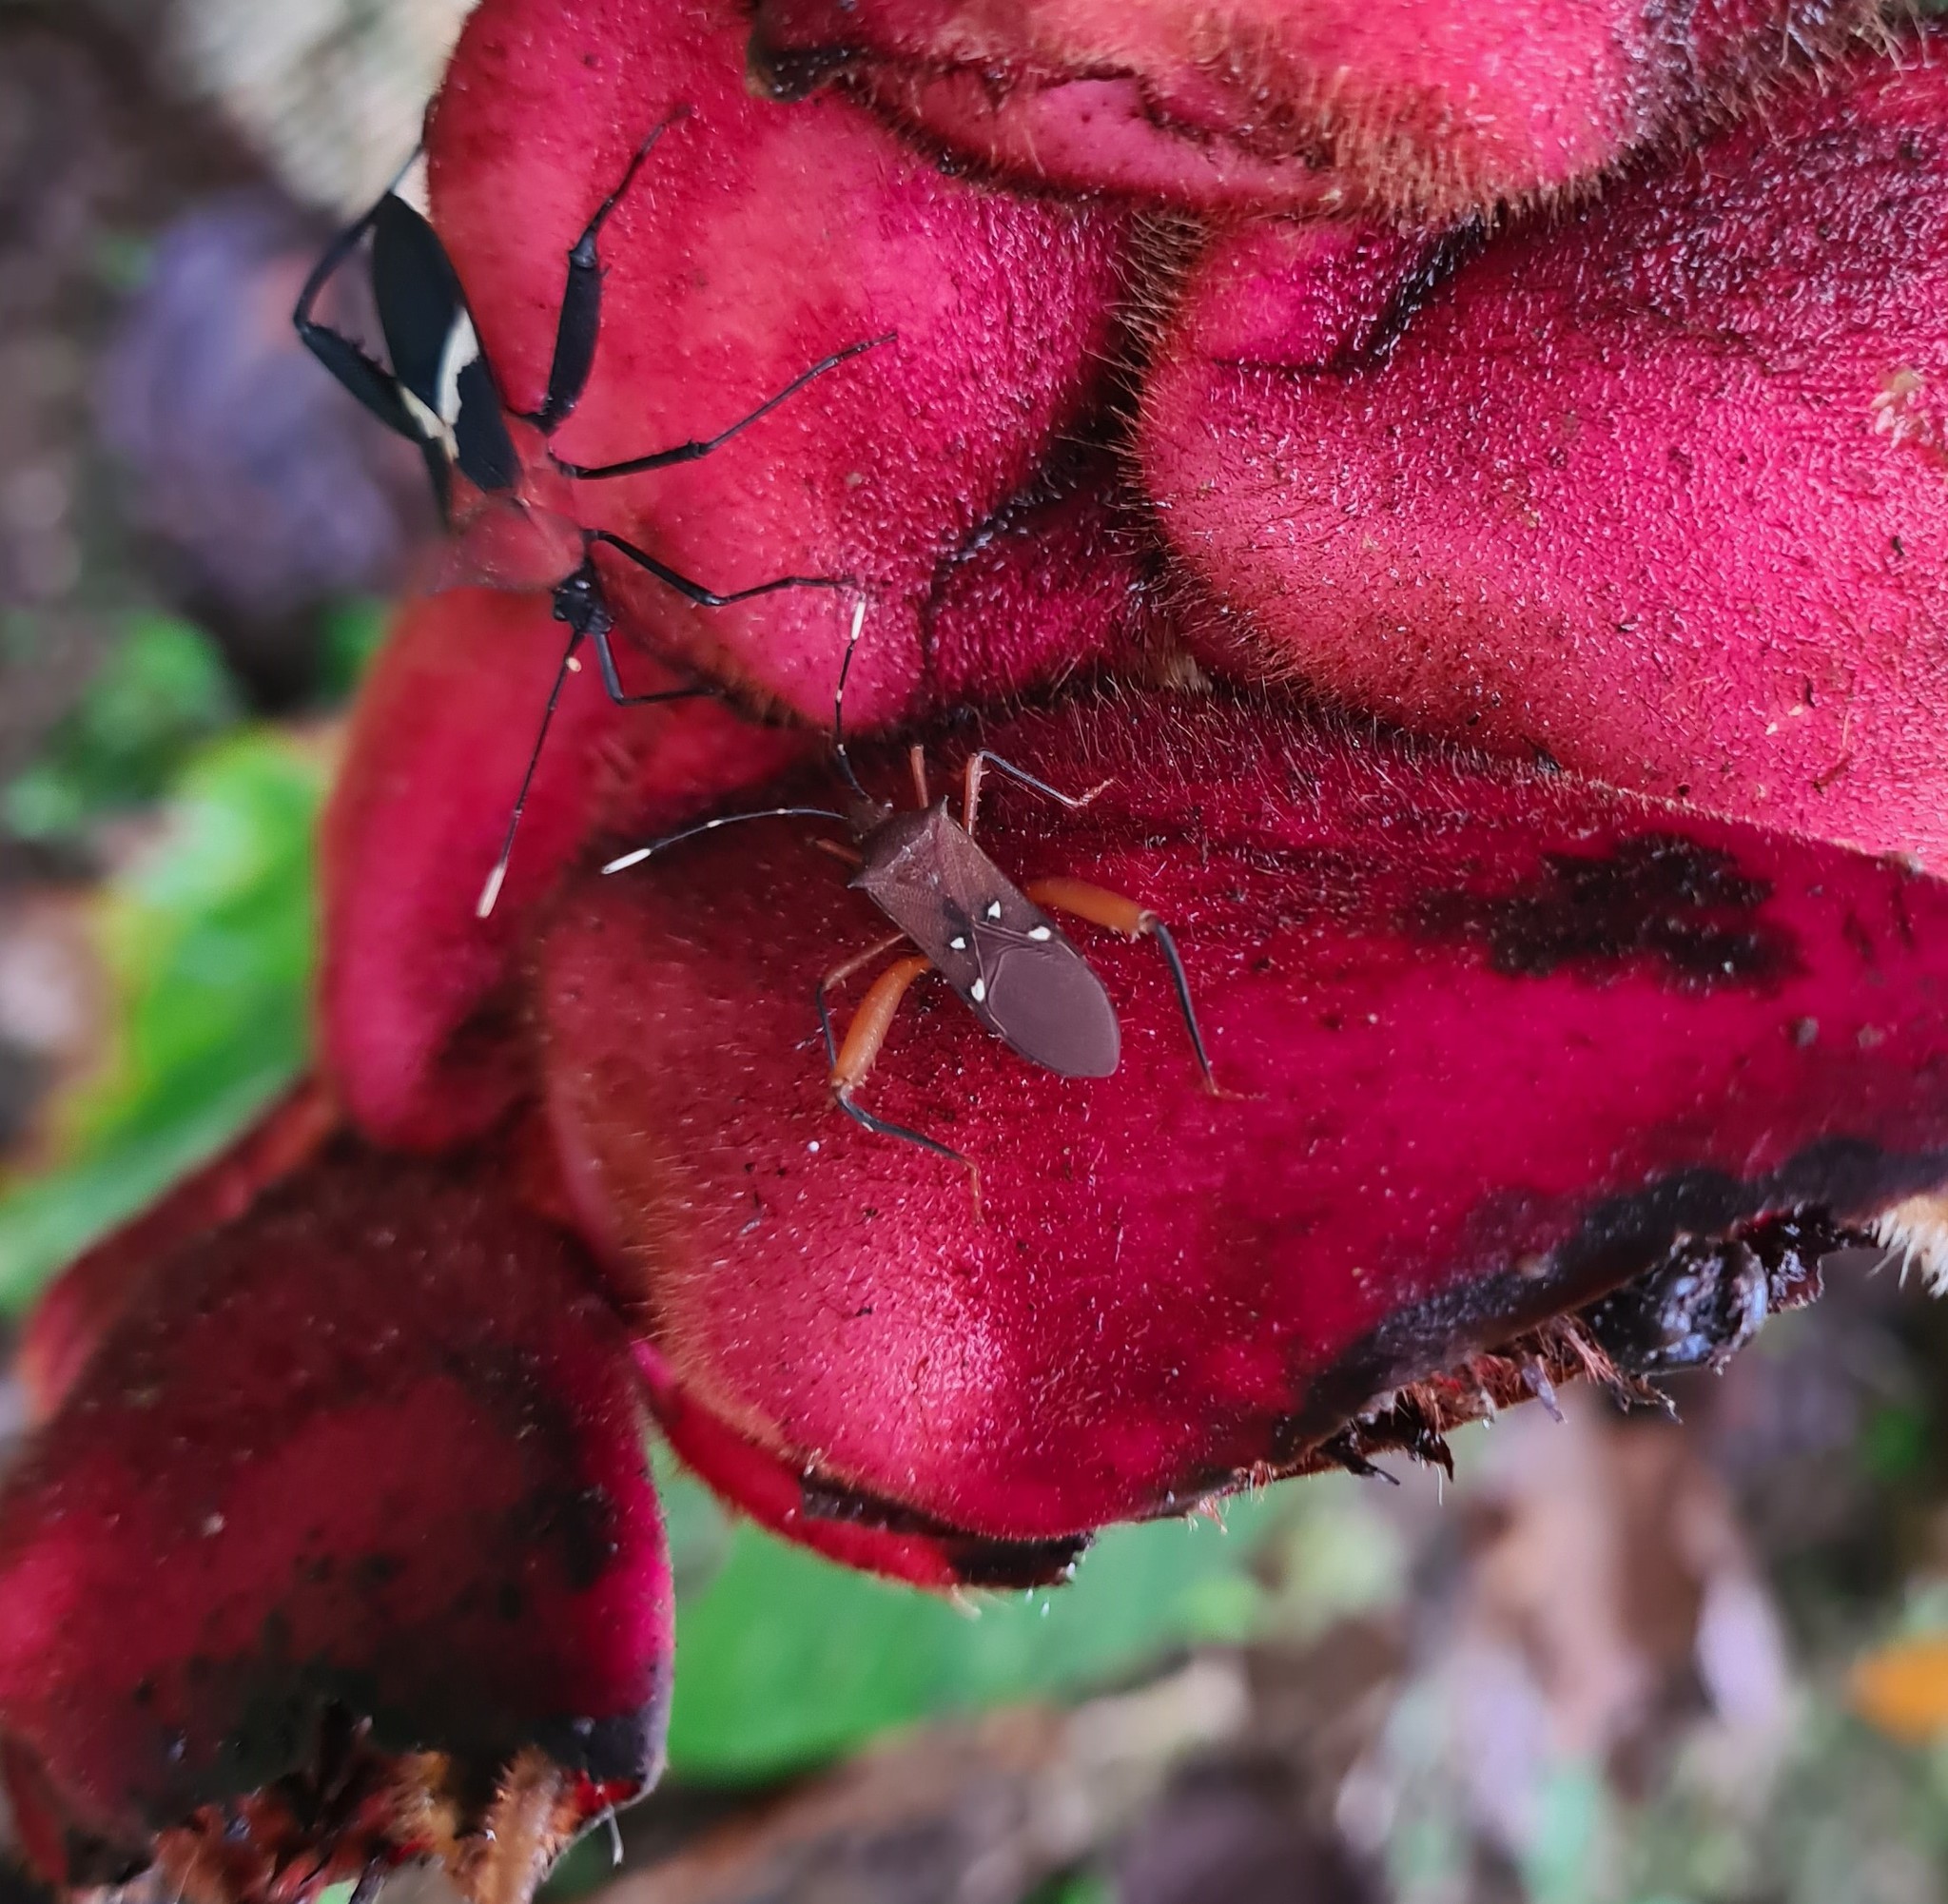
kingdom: Animalia
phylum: Arthropoda
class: Insecta
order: Hemiptera
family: Coreidae
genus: Leptoscelis
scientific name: Leptoscelis quadrisignatus
